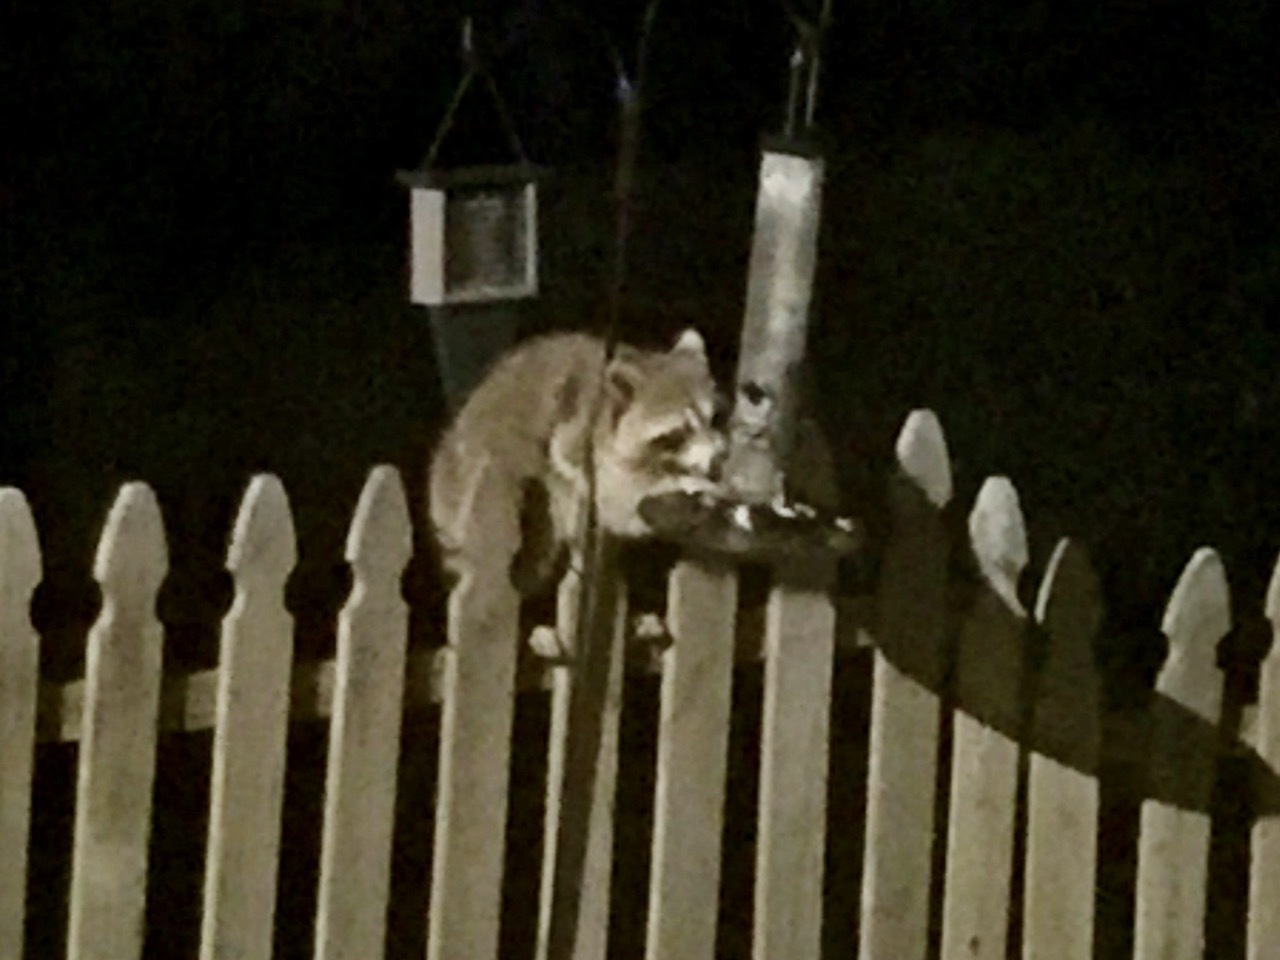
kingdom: Animalia
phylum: Chordata
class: Mammalia
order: Carnivora
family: Procyonidae
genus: Procyon
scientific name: Procyon lotor
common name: Raccoon
